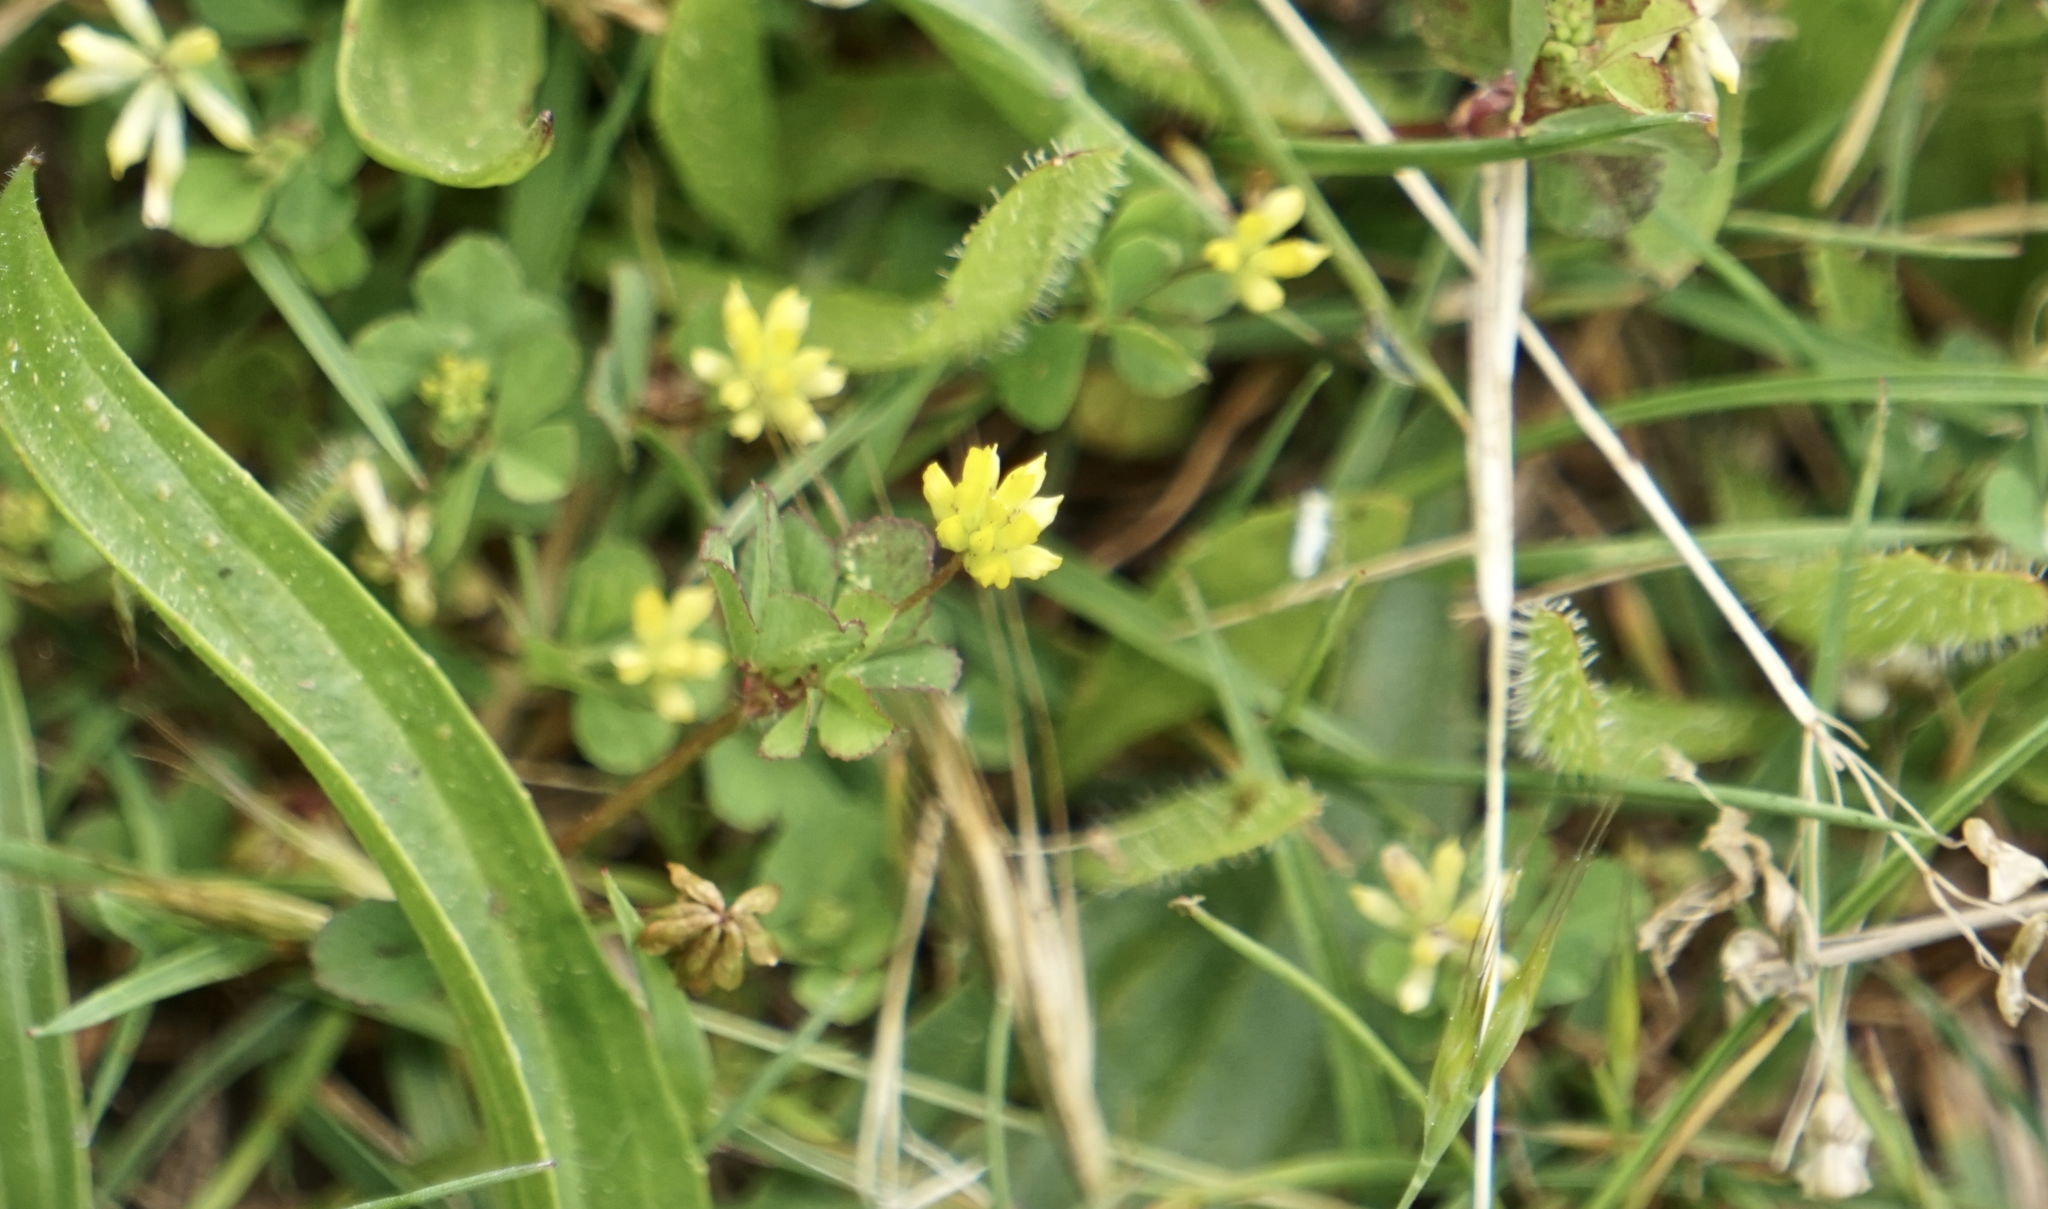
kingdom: Plantae
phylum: Tracheophyta
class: Magnoliopsida
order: Fabales
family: Fabaceae
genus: Trifolium
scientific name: Trifolium dubium
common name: Suckling clover
